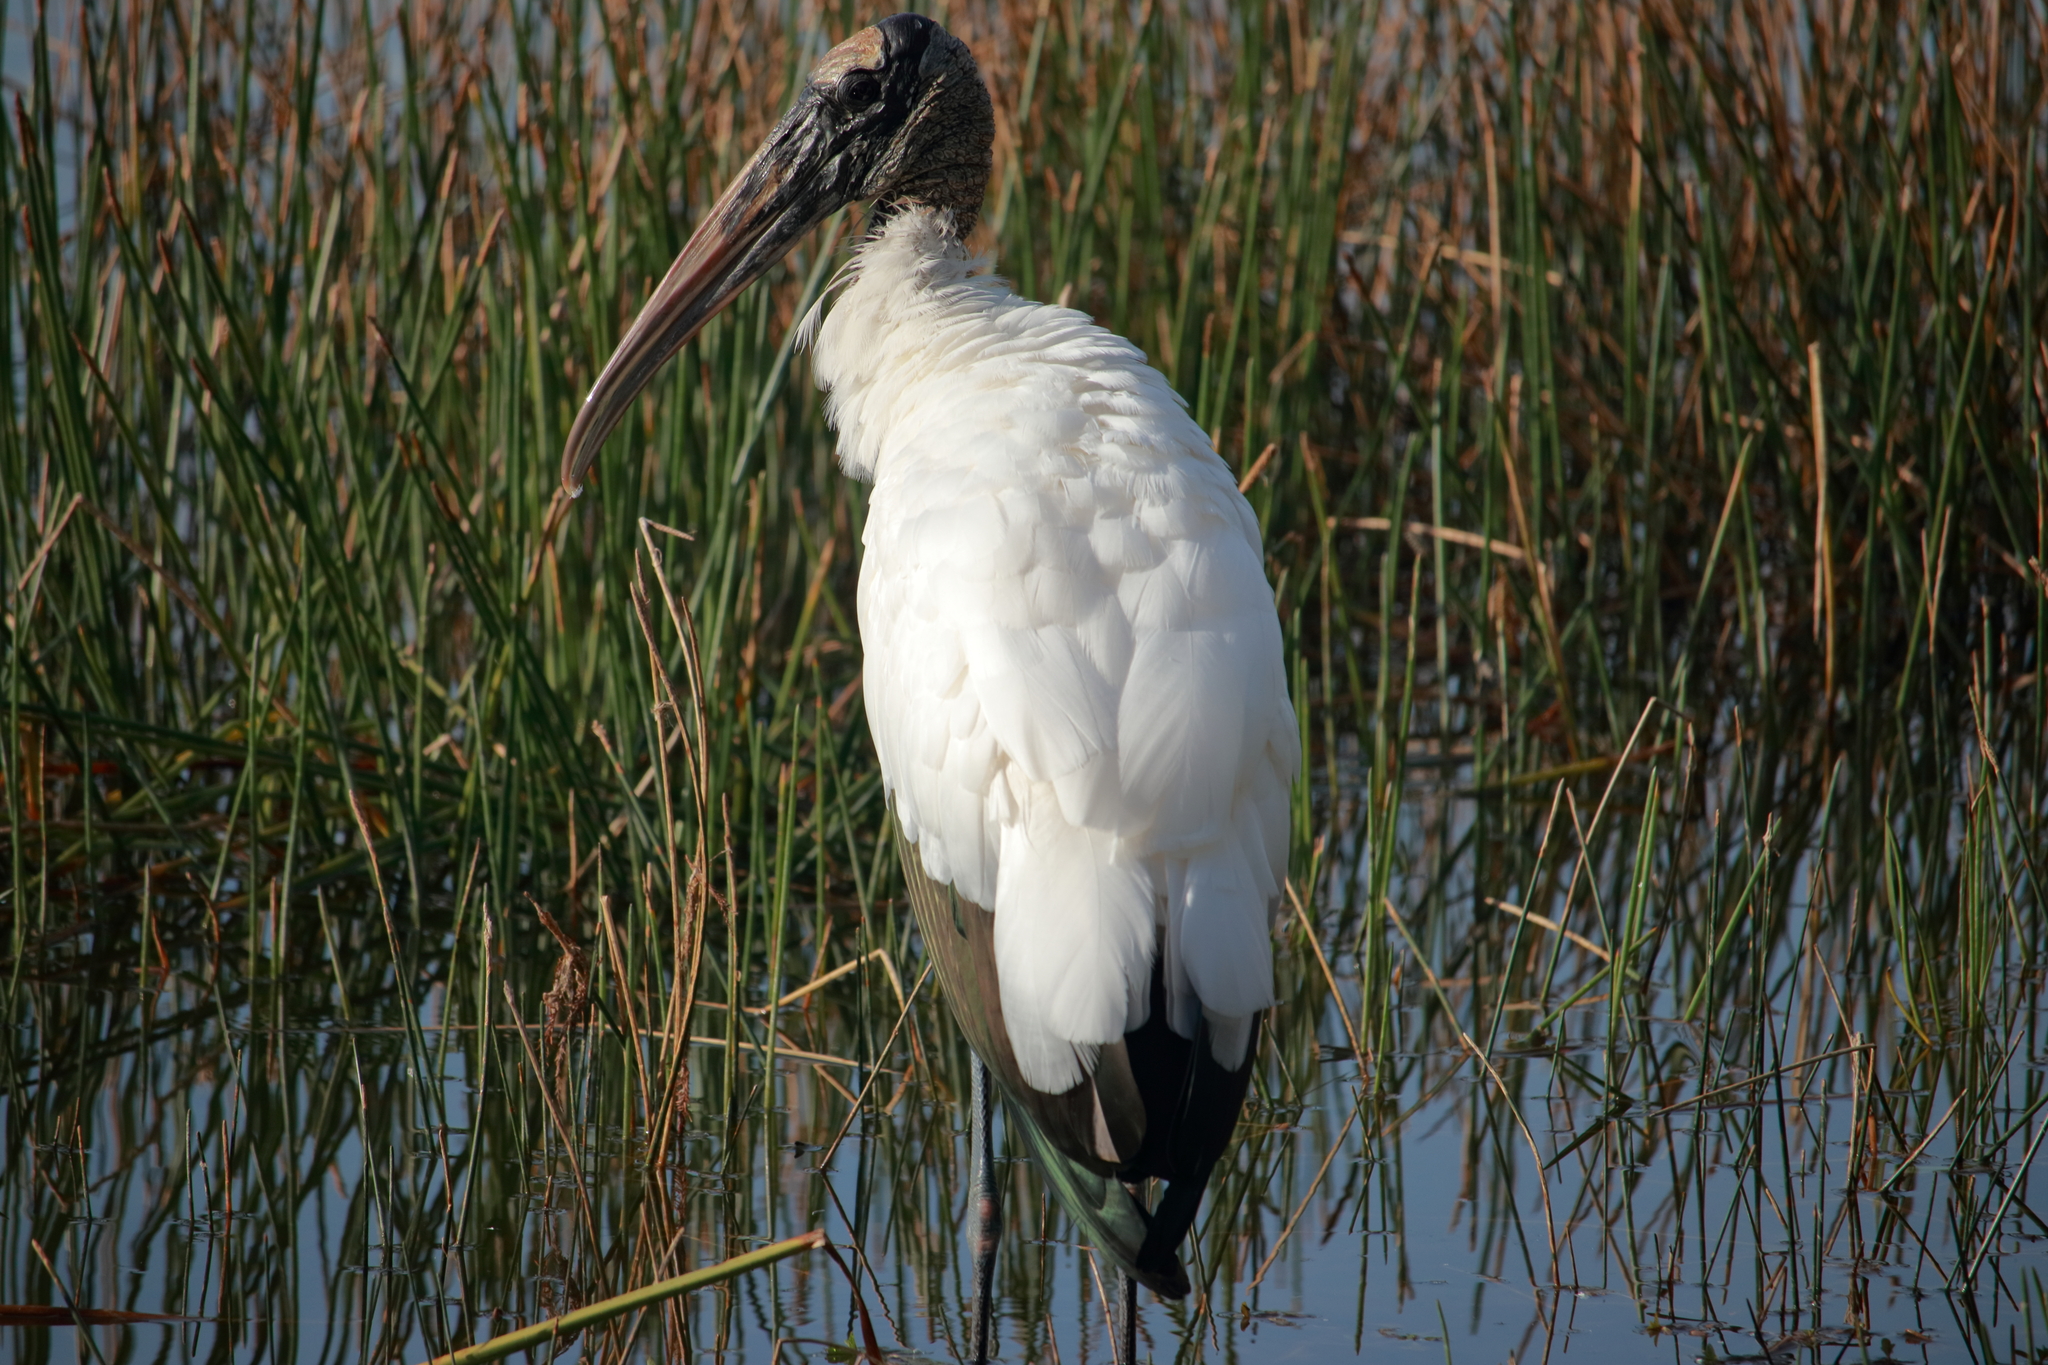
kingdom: Animalia
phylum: Chordata
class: Aves
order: Ciconiiformes
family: Ciconiidae
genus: Mycteria
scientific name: Mycteria americana
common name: Wood stork
